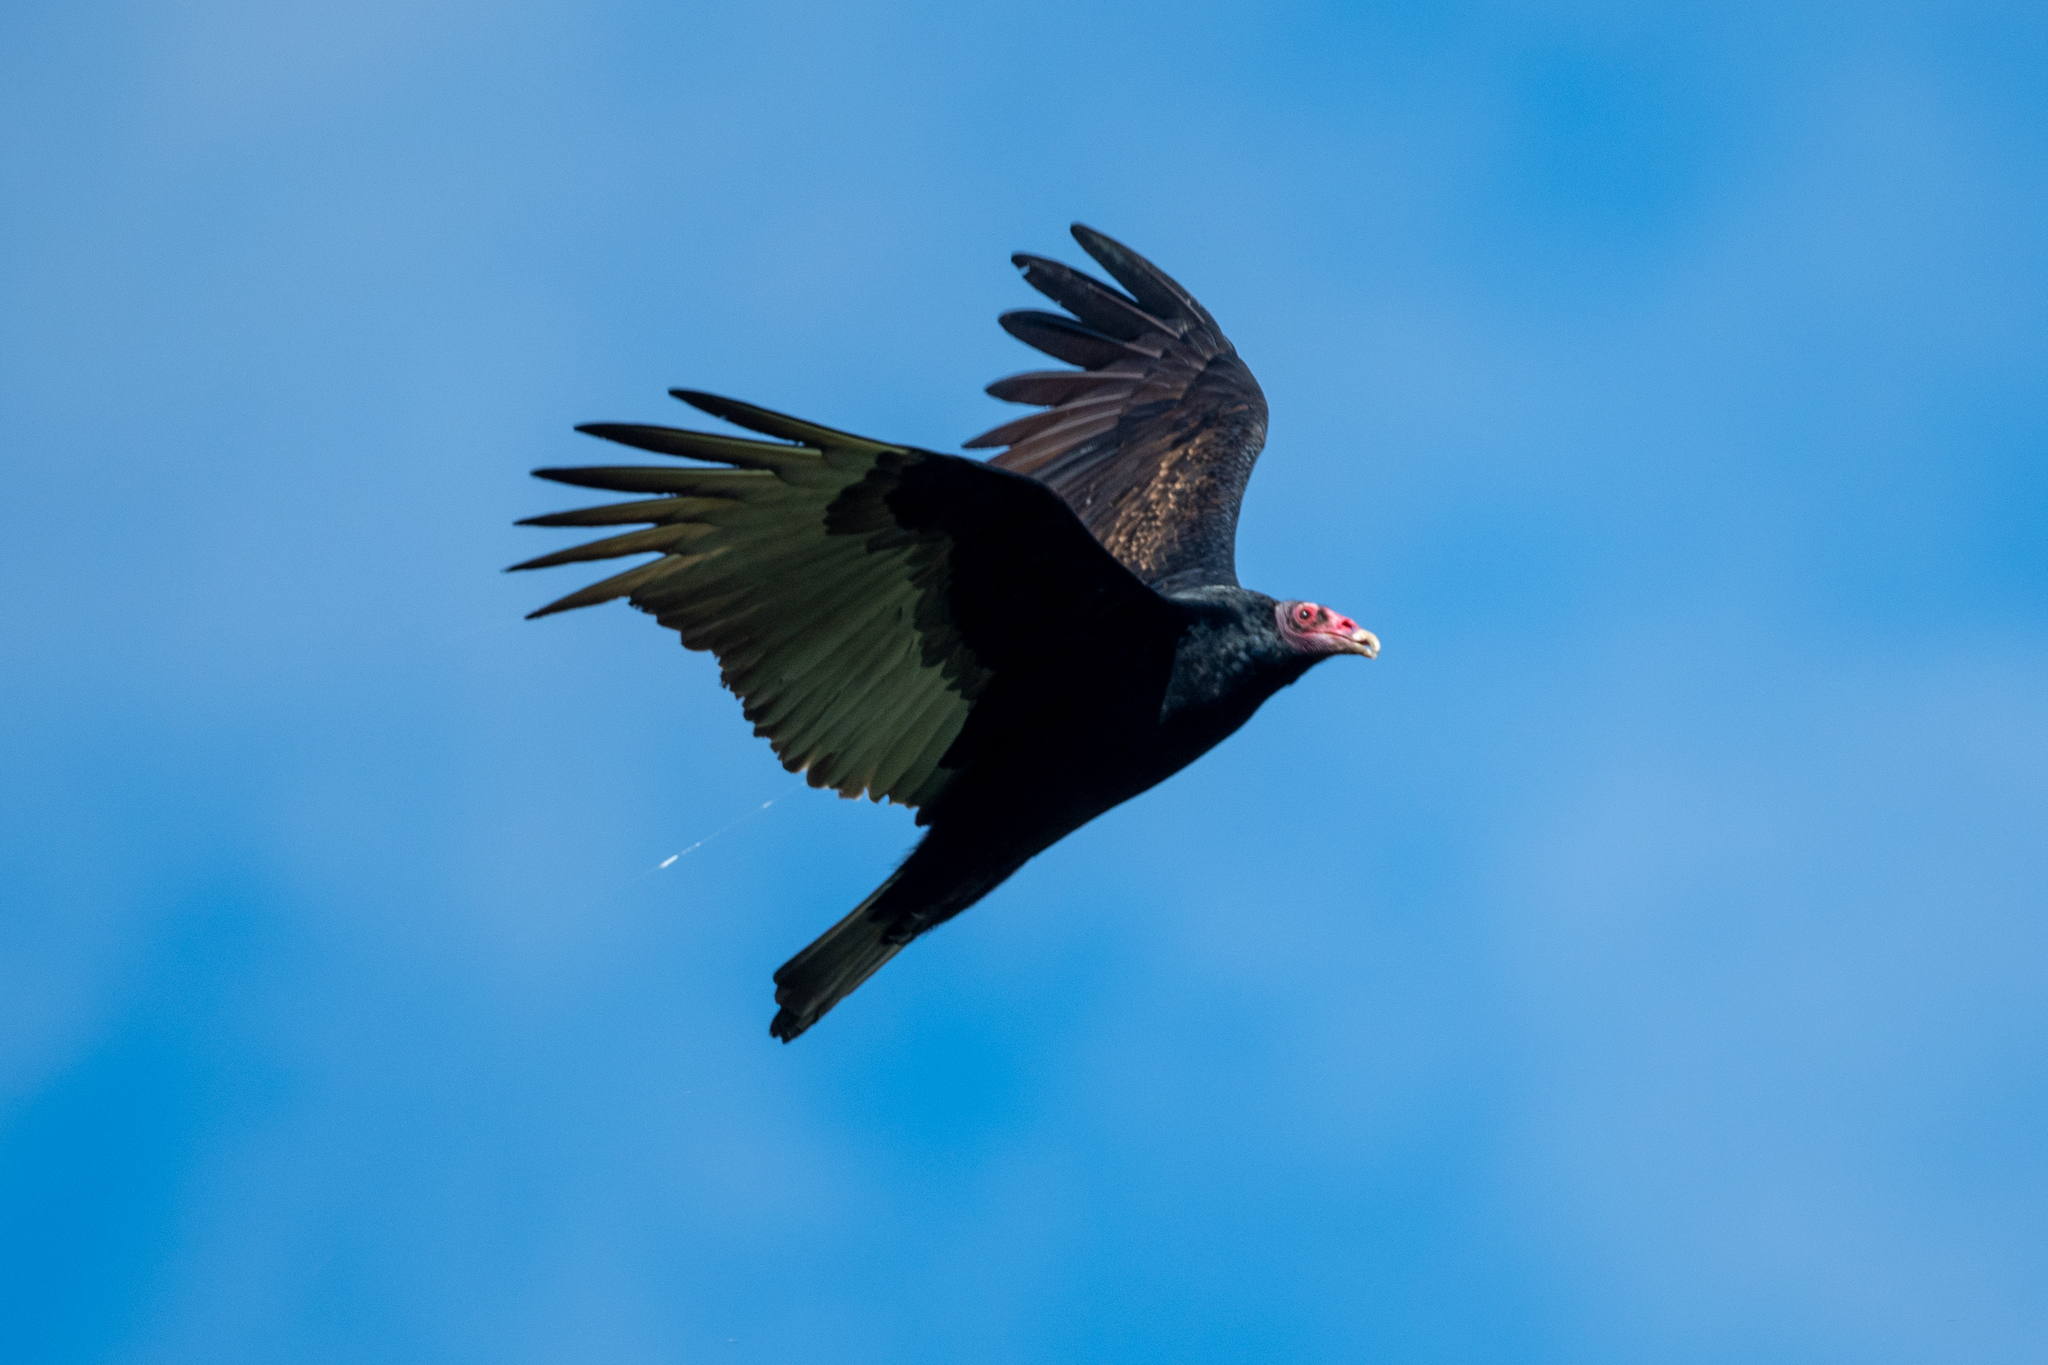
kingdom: Animalia
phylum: Chordata
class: Aves
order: Accipitriformes
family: Cathartidae
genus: Cathartes
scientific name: Cathartes aura
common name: Turkey vulture
